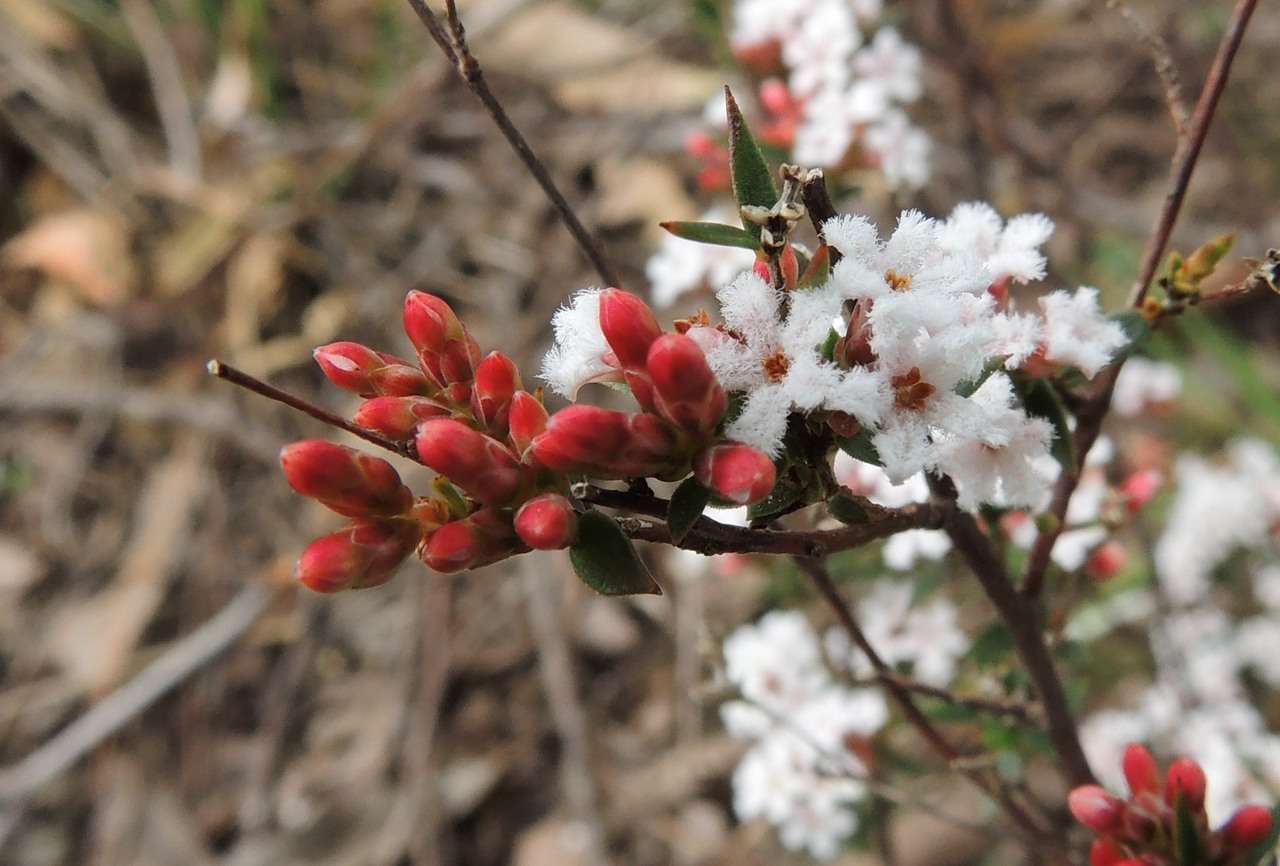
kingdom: Plantae
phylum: Tracheophyta
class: Magnoliopsida
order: Ericales
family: Ericaceae
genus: Leucopogon
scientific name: Leucopogon virgatus
